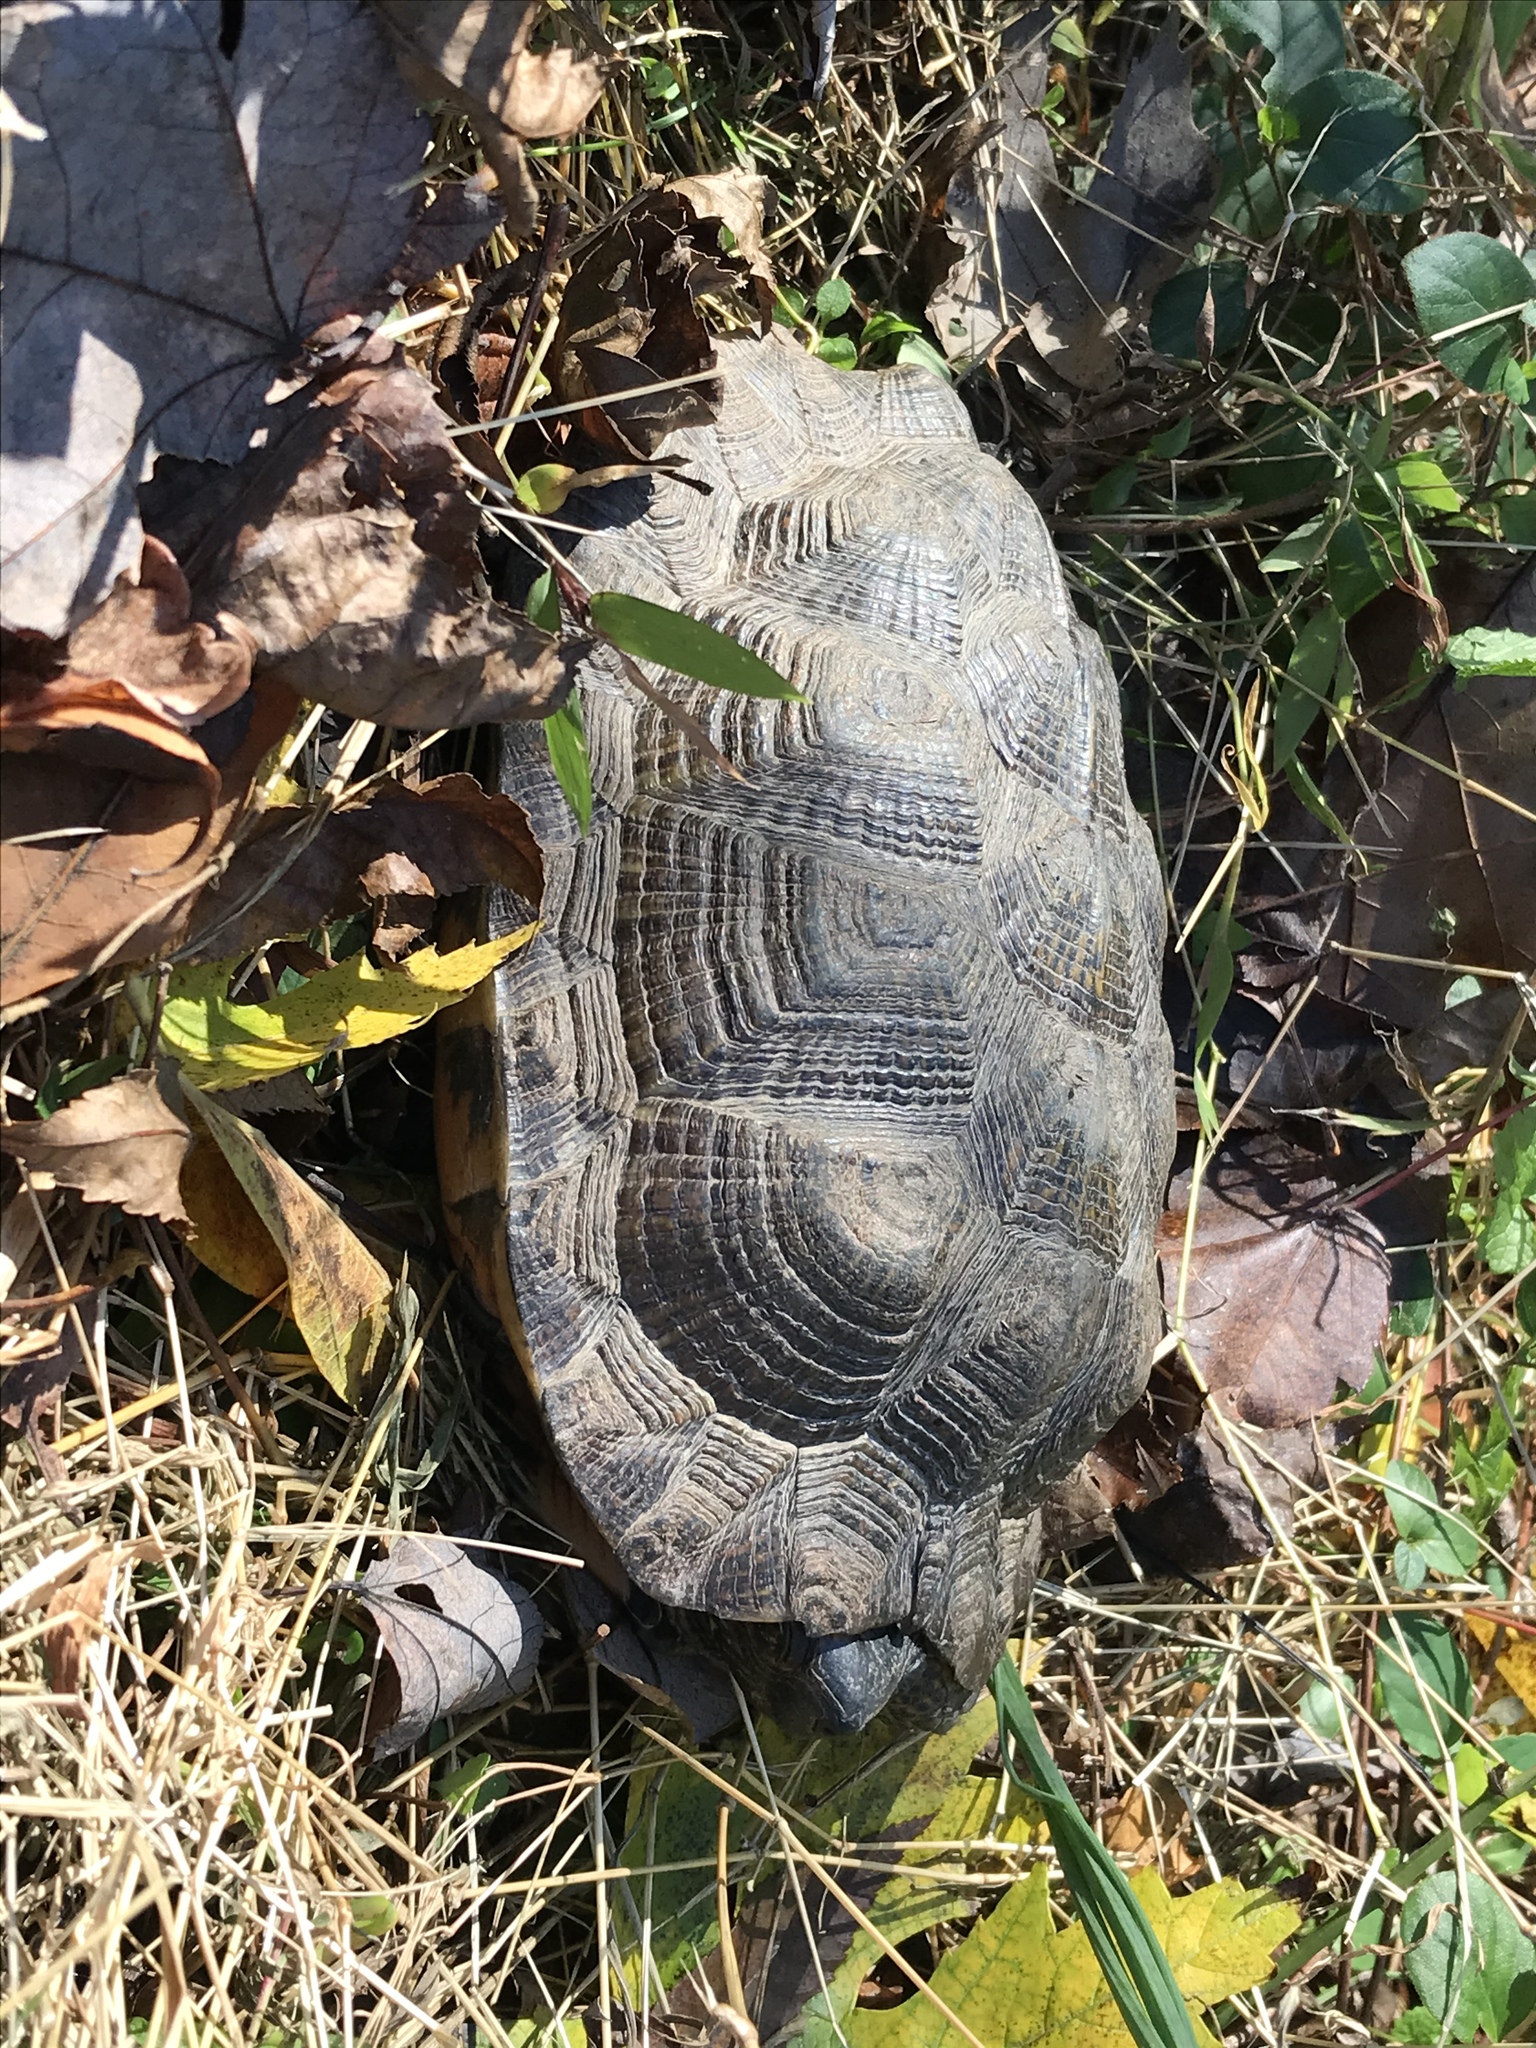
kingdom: Animalia
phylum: Chordata
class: Testudines
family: Emydidae
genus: Glyptemys
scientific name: Glyptemys insculpta
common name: Wood turtle
